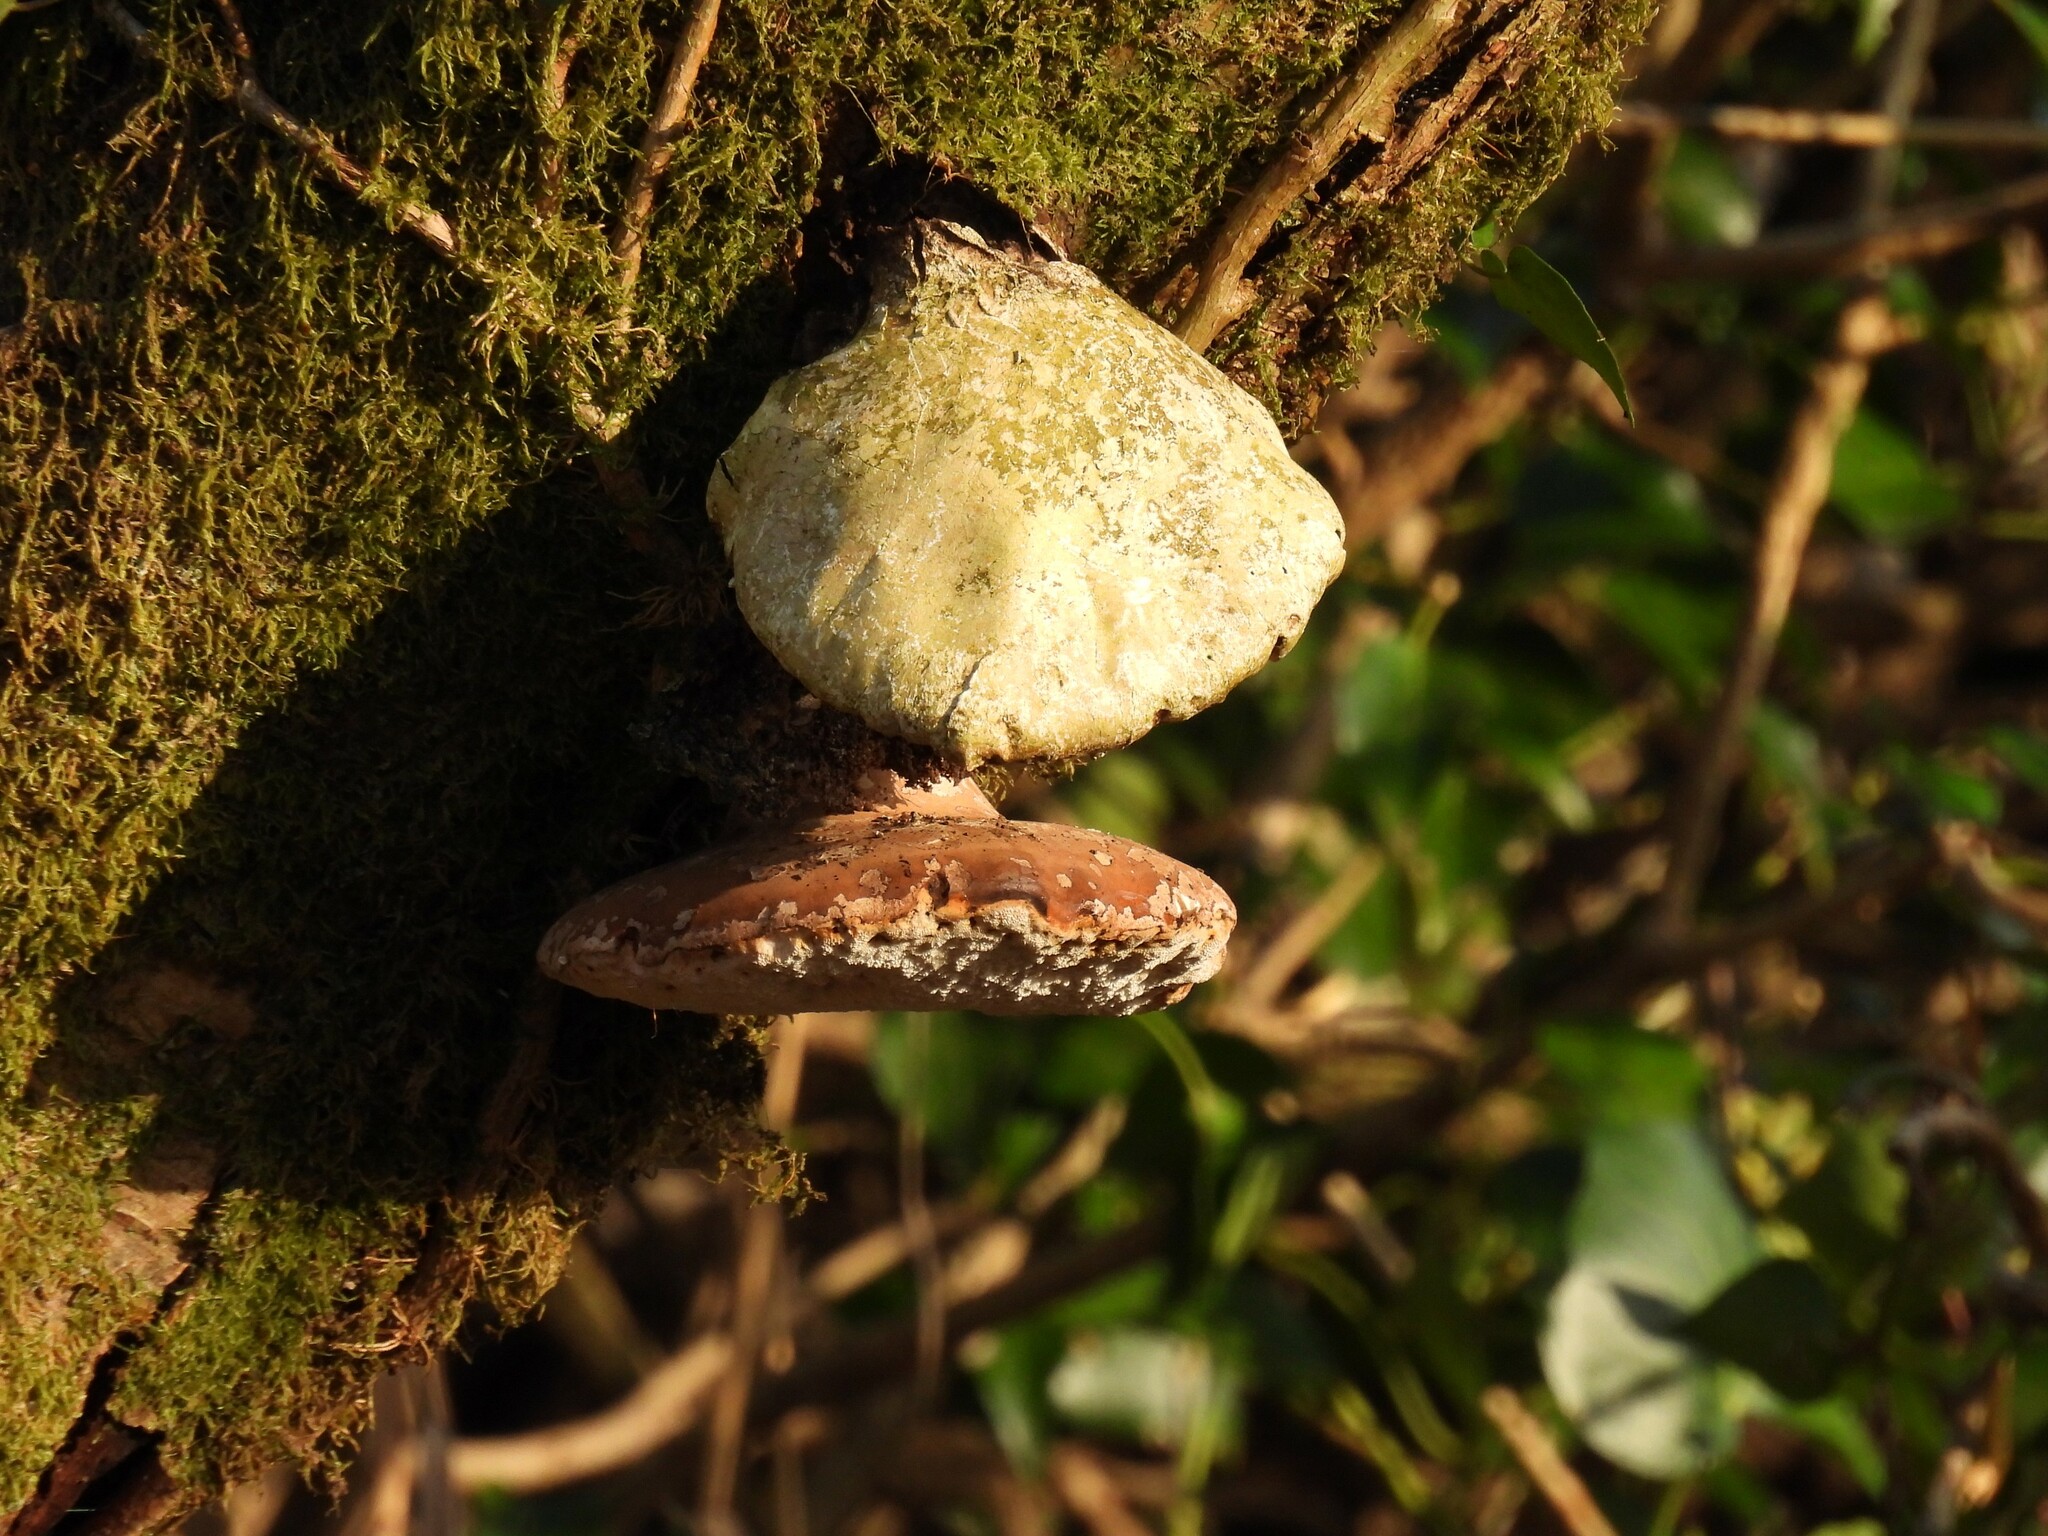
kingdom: Fungi
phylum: Basidiomycota
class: Agaricomycetes
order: Polyporales
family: Fomitopsidaceae
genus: Fomitopsis
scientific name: Fomitopsis betulina
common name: Birch polypore
